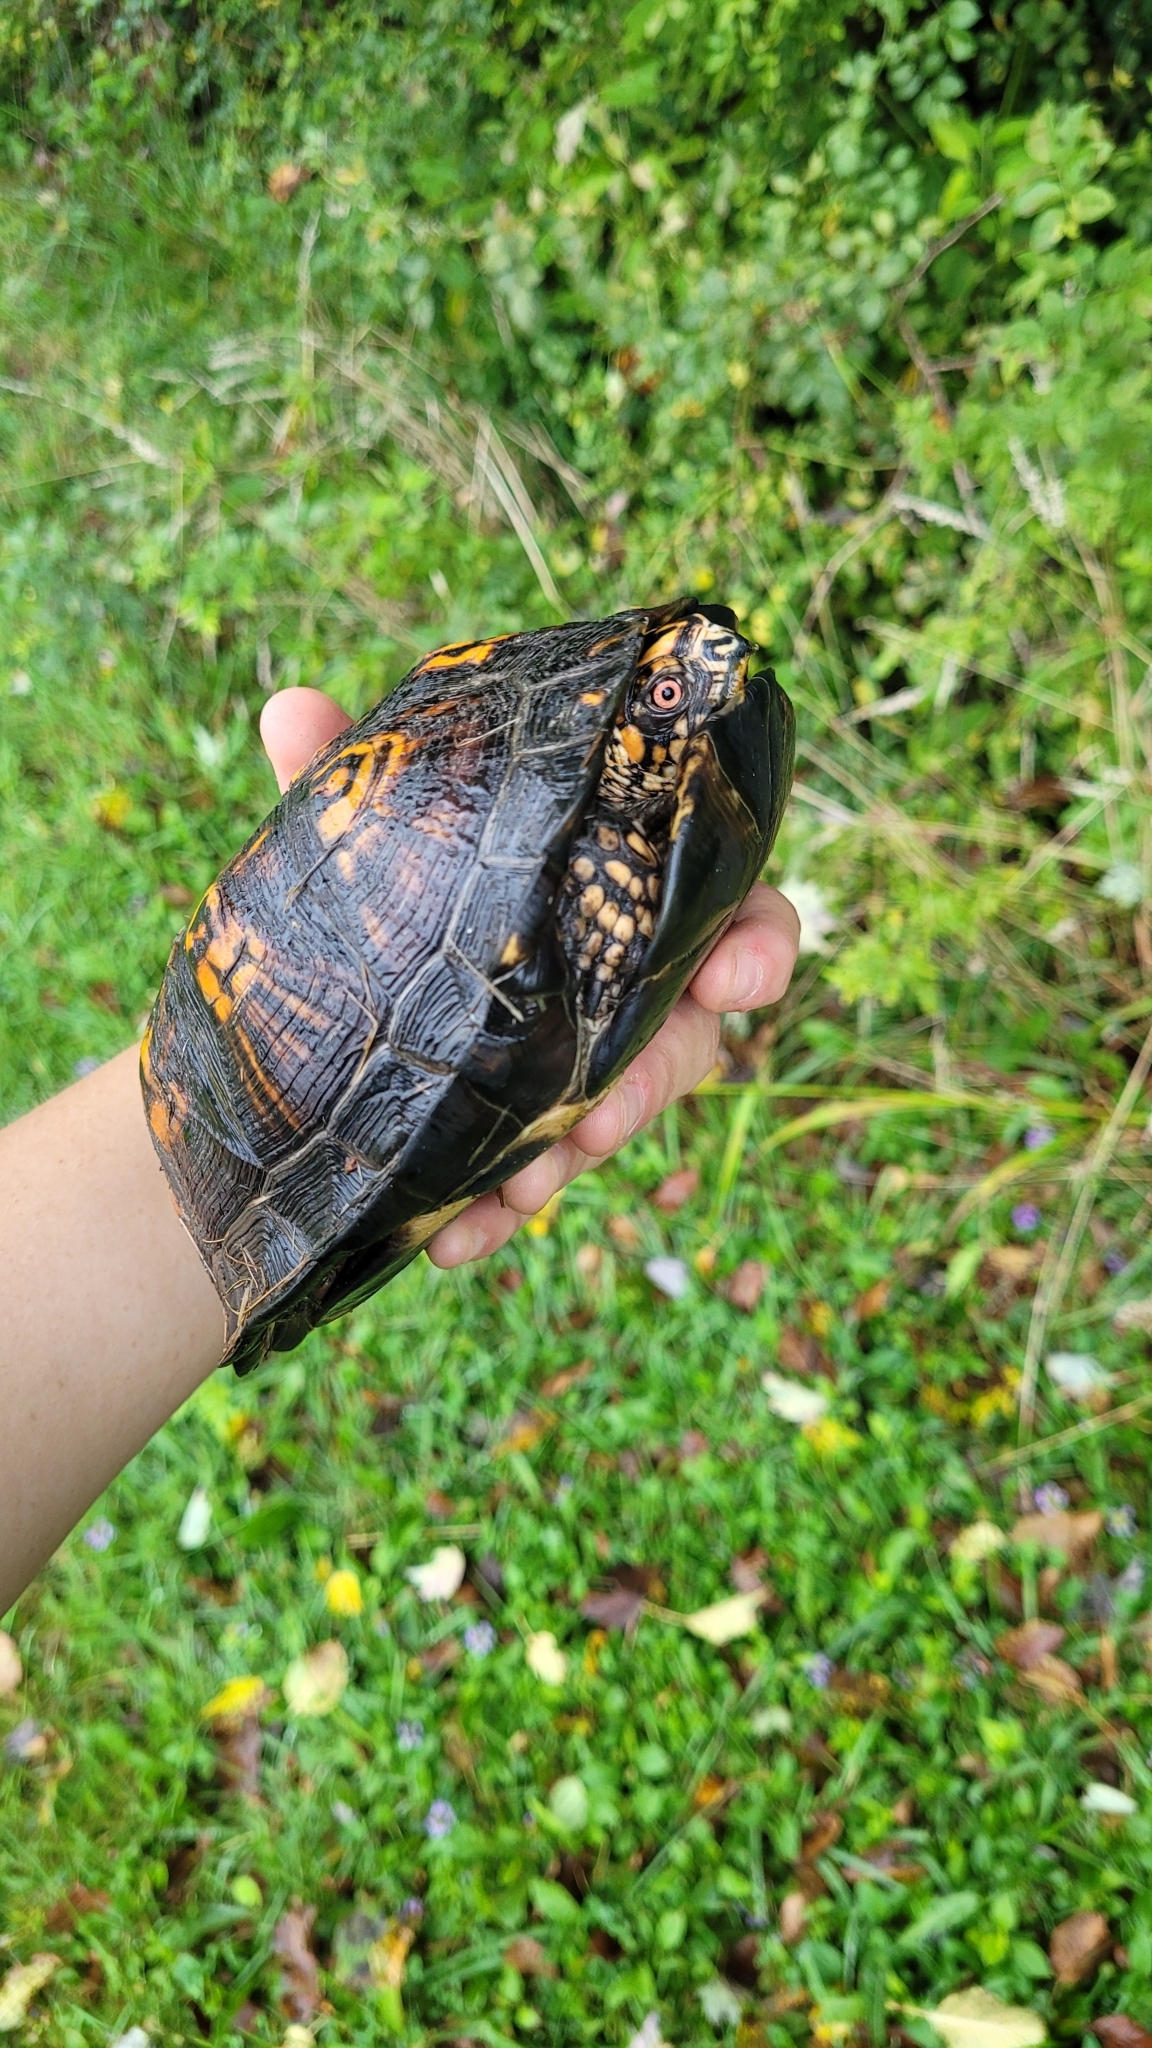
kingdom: Animalia
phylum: Chordata
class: Testudines
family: Emydidae
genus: Terrapene
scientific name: Terrapene carolina
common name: Common box turtle
